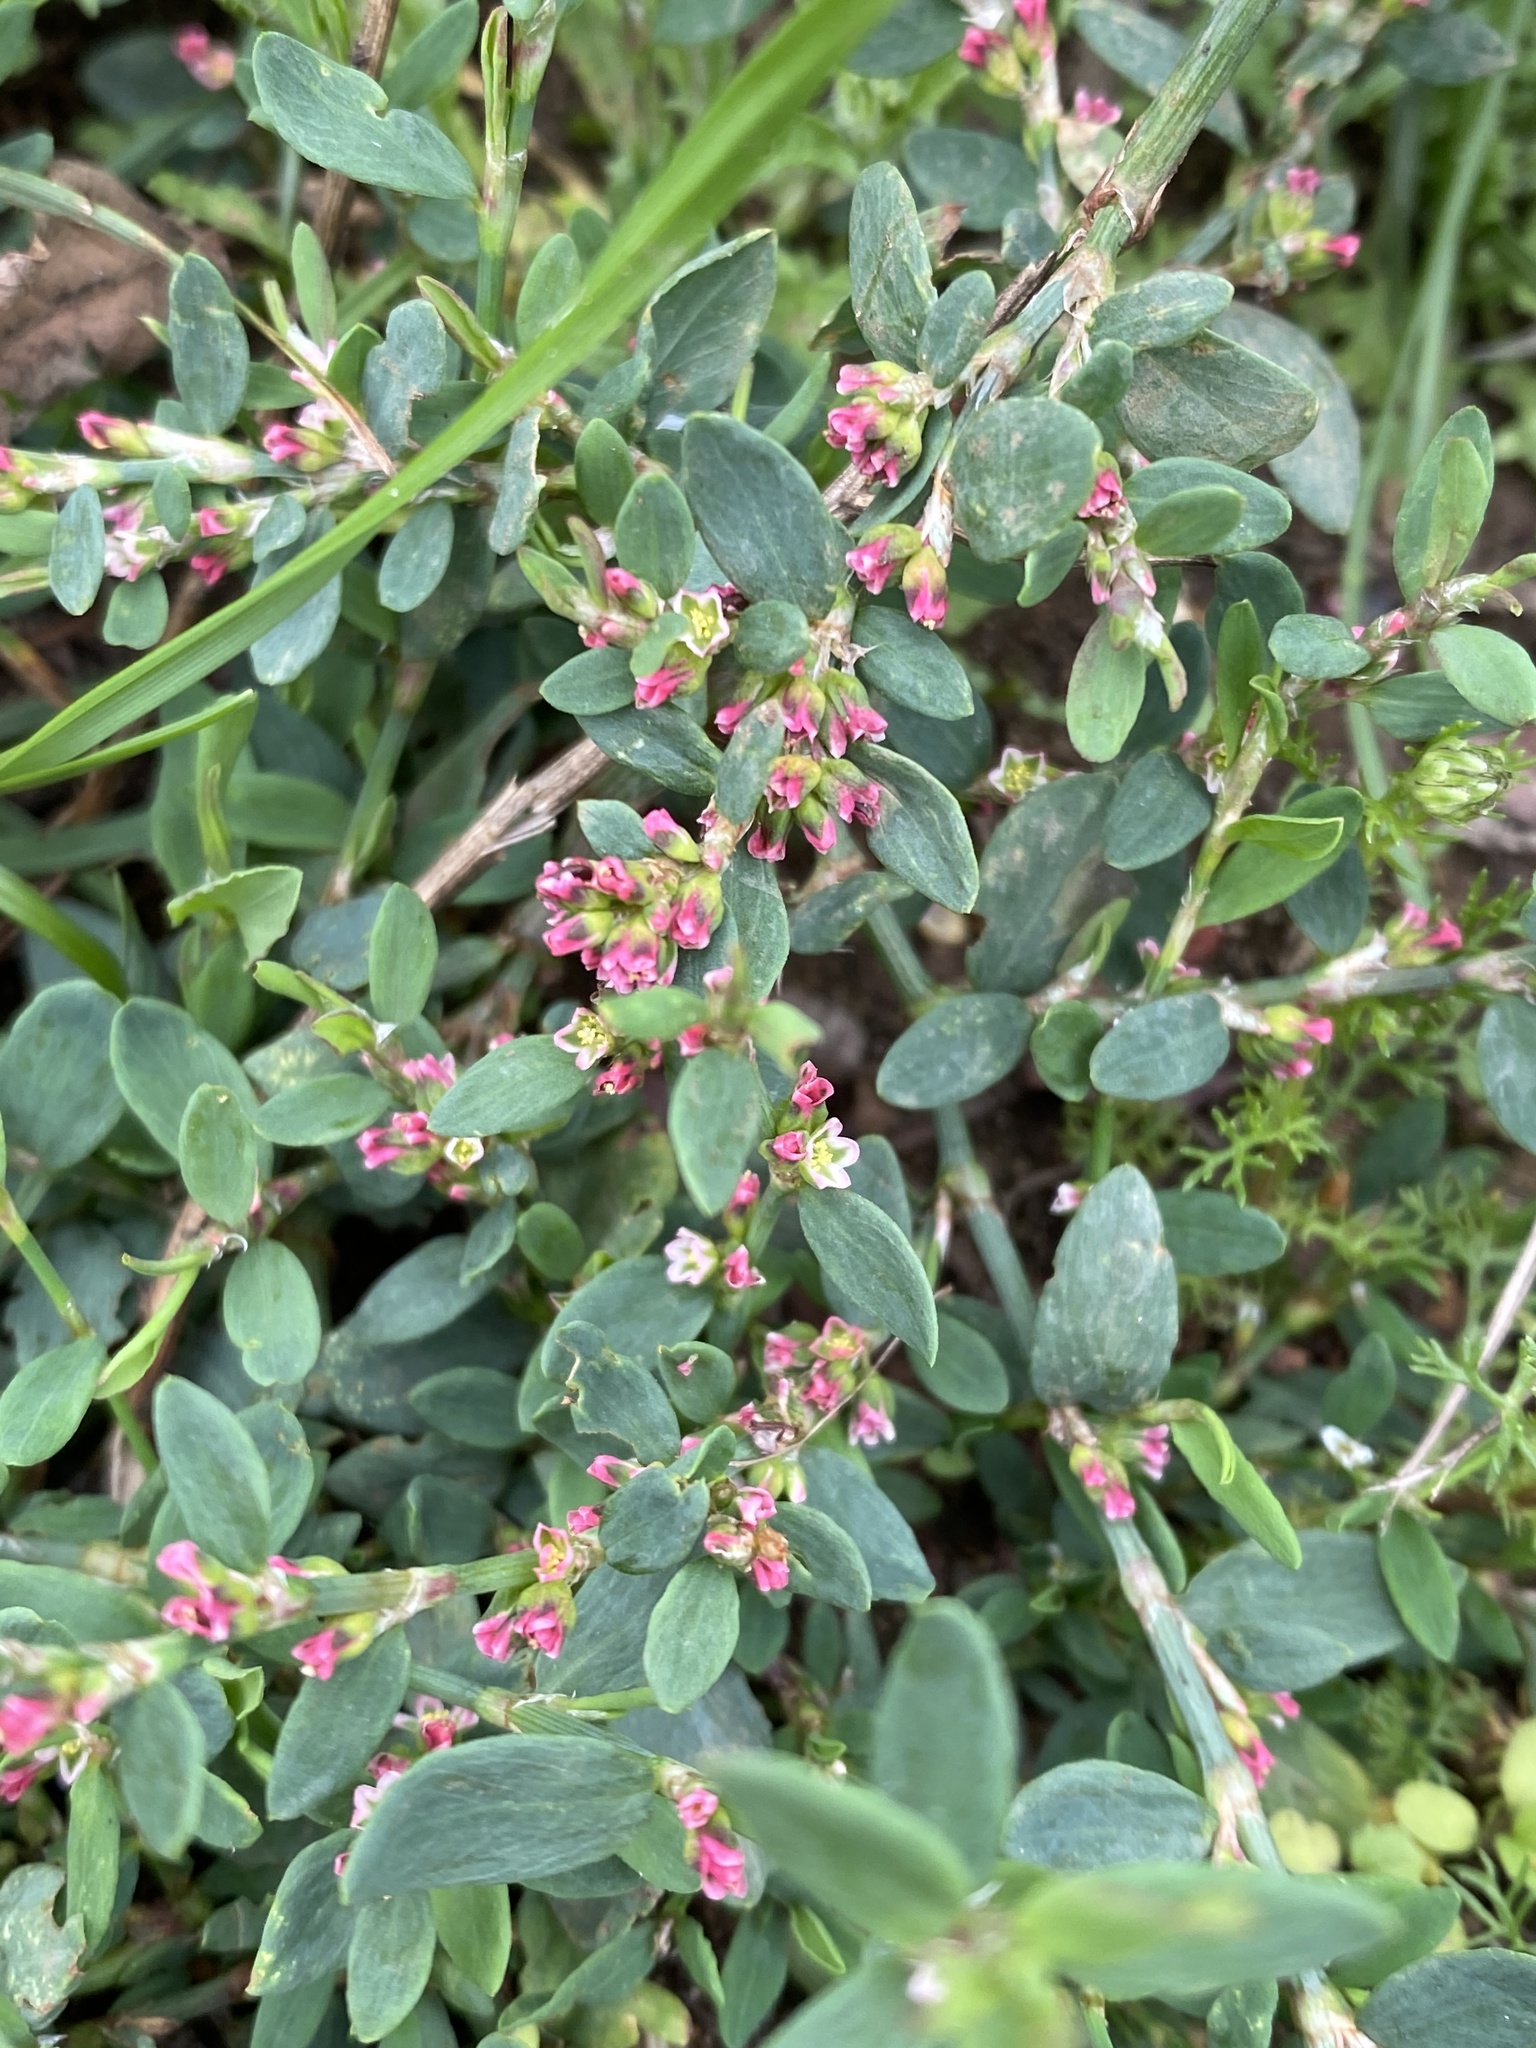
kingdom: Plantae
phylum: Tracheophyta
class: Magnoliopsida
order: Caryophyllales
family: Polygonaceae
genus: Polygonum
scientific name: Polygonum aviculare
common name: Prostrate knotweed
